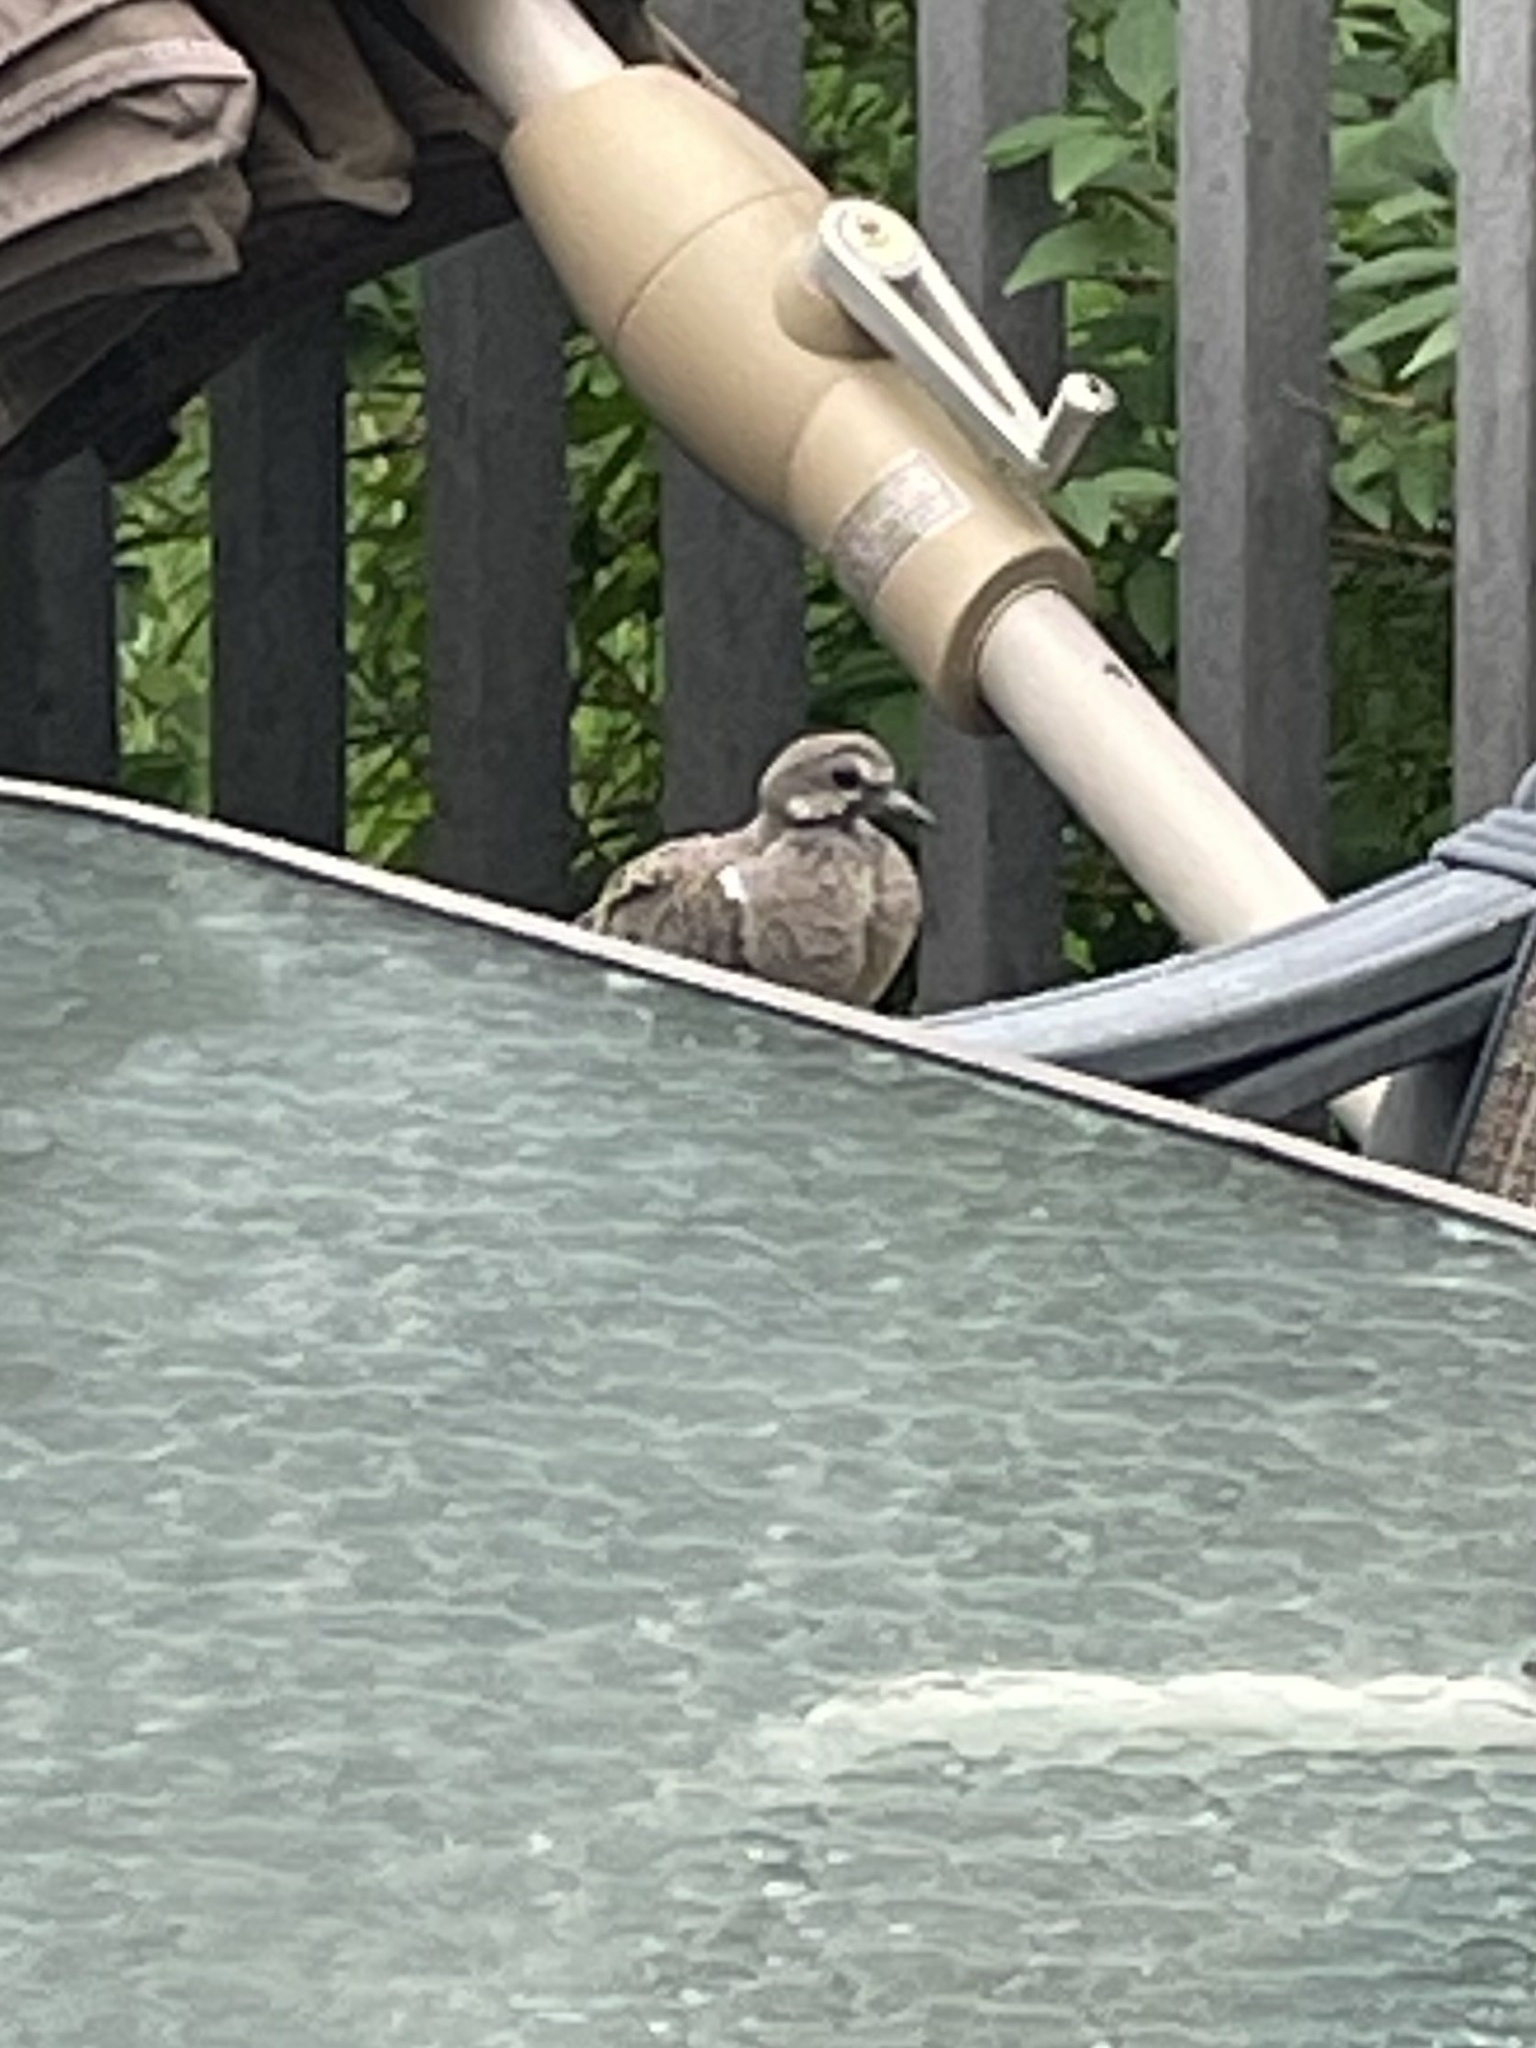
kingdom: Animalia
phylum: Chordata
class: Aves
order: Columbiformes
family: Columbidae
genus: Zenaida
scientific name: Zenaida macroura
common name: Mourning dove
